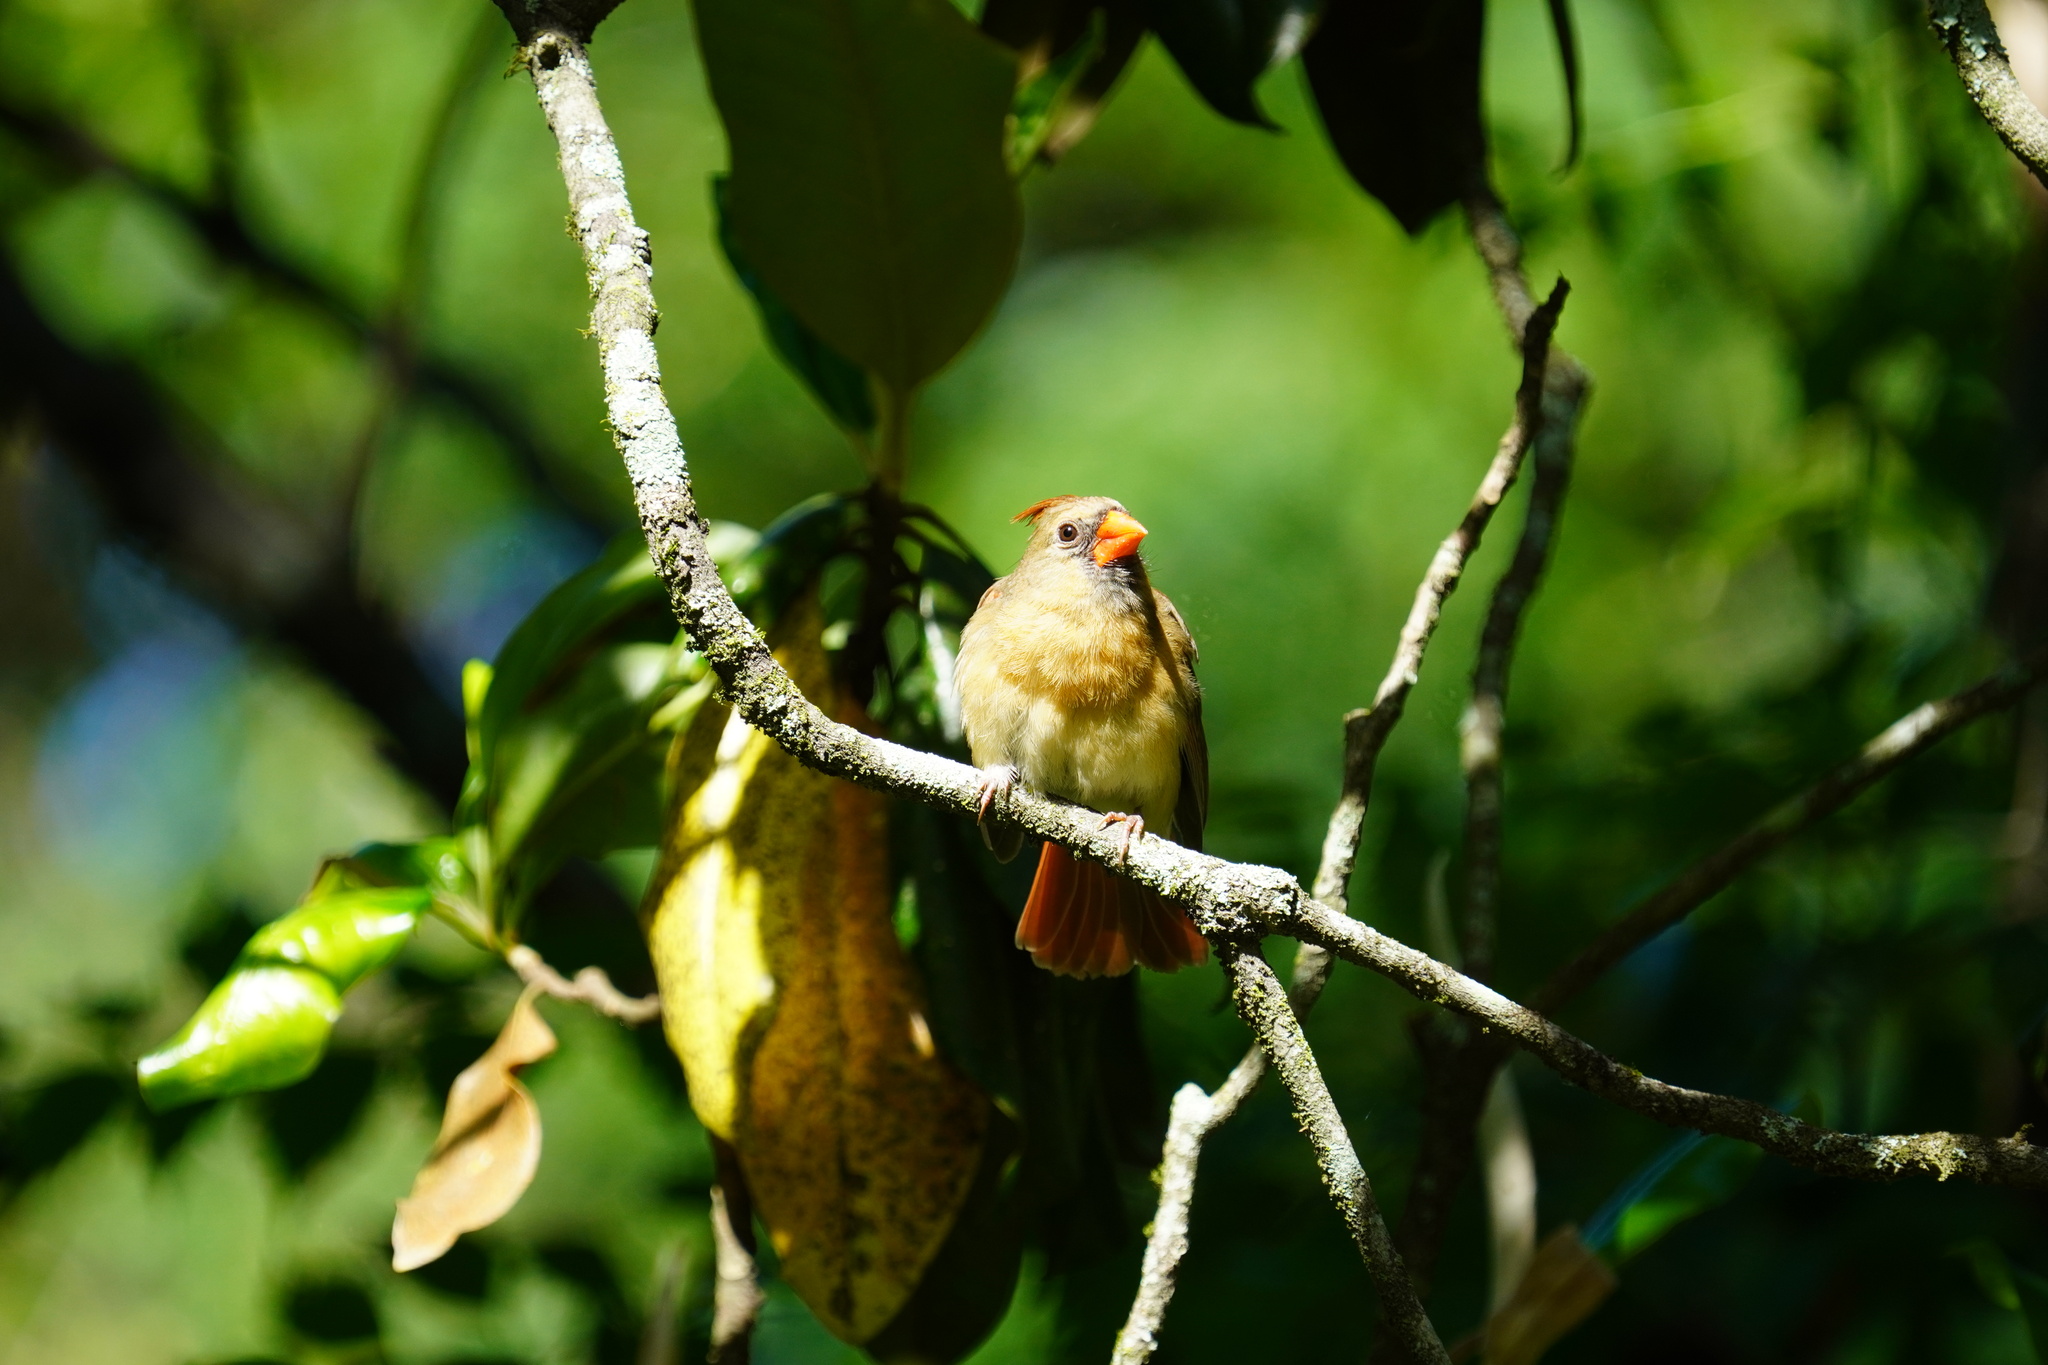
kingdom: Animalia
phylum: Chordata
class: Aves
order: Passeriformes
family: Cardinalidae
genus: Cardinalis
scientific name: Cardinalis cardinalis
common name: Northern cardinal
